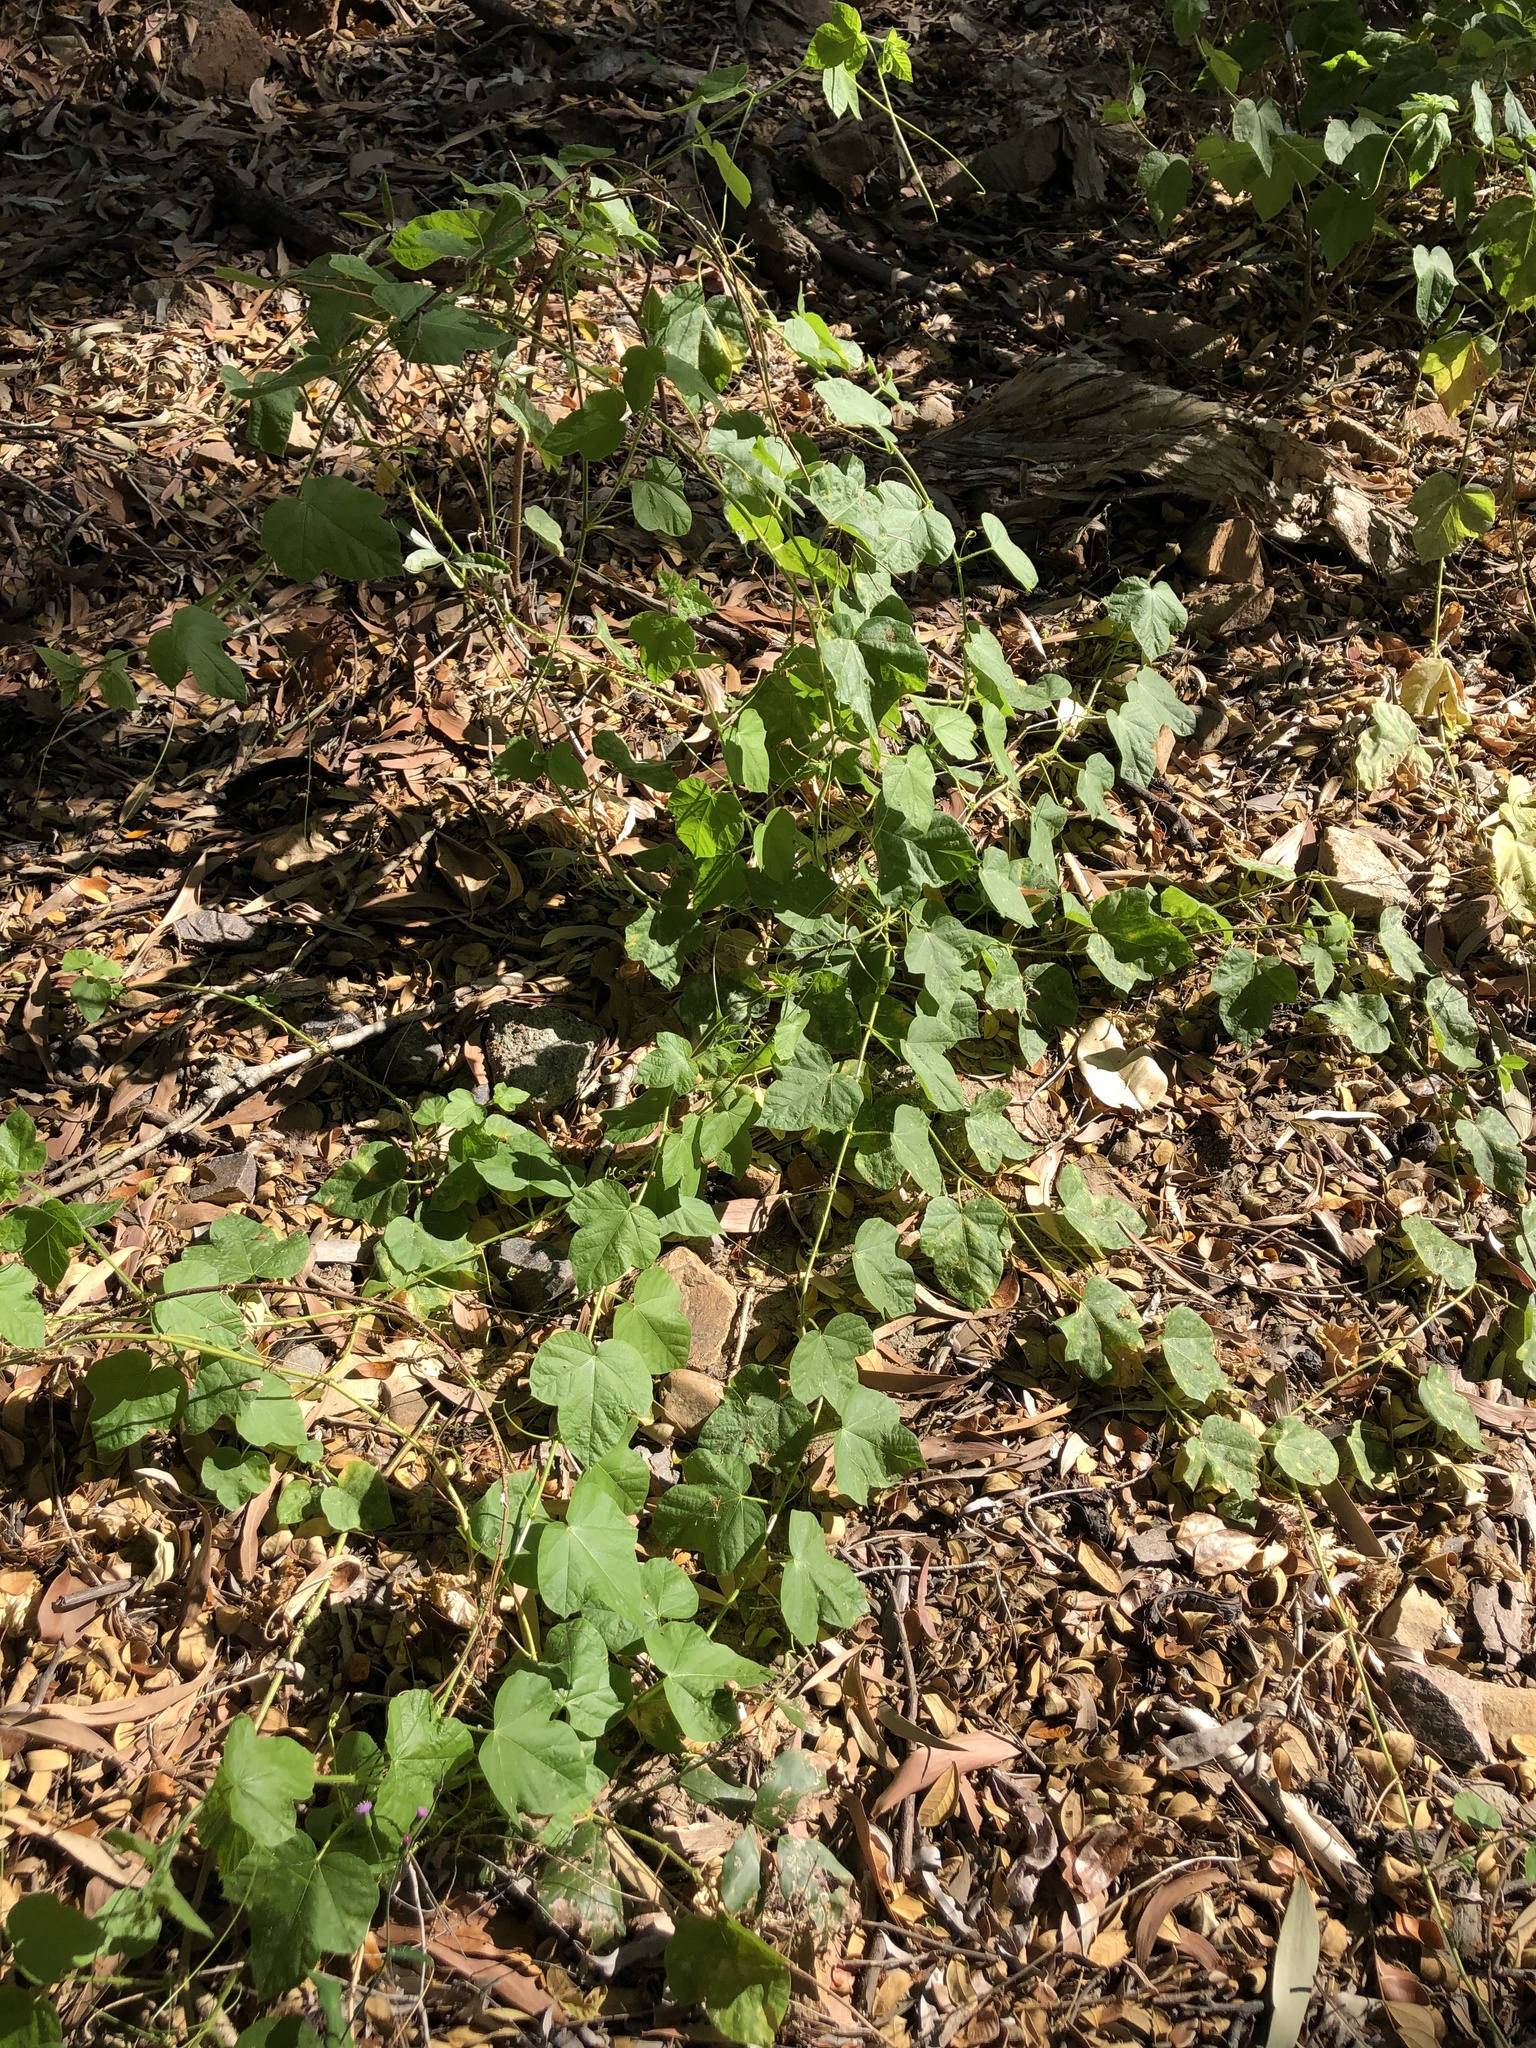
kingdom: Plantae
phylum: Tracheophyta
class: Magnoliopsida
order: Malpighiales
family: Passifloraceae
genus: Passiflora
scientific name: Passiflora foetida
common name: Fetid passionflower
